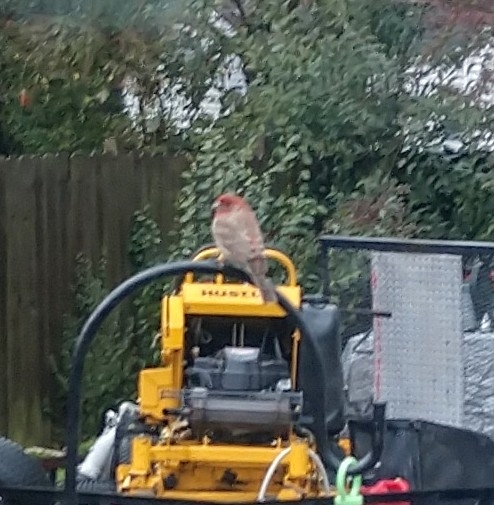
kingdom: Animalia
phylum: Chordata
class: Aves
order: Passeriformes
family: Fringillidae
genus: Haemorhous
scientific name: Haemorhous mexicanus
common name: House finch
